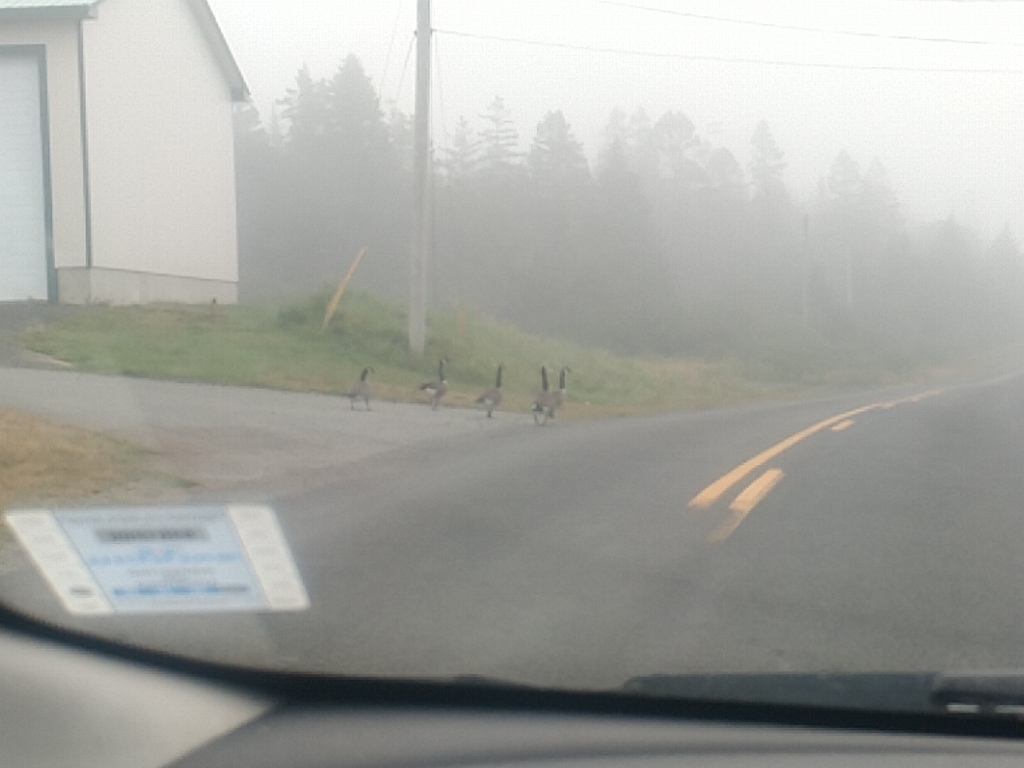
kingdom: Animalia
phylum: Chordata
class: Aves
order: Anseriformes
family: Anatidae
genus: Branta
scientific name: Branta canadensis
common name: Canada goose
